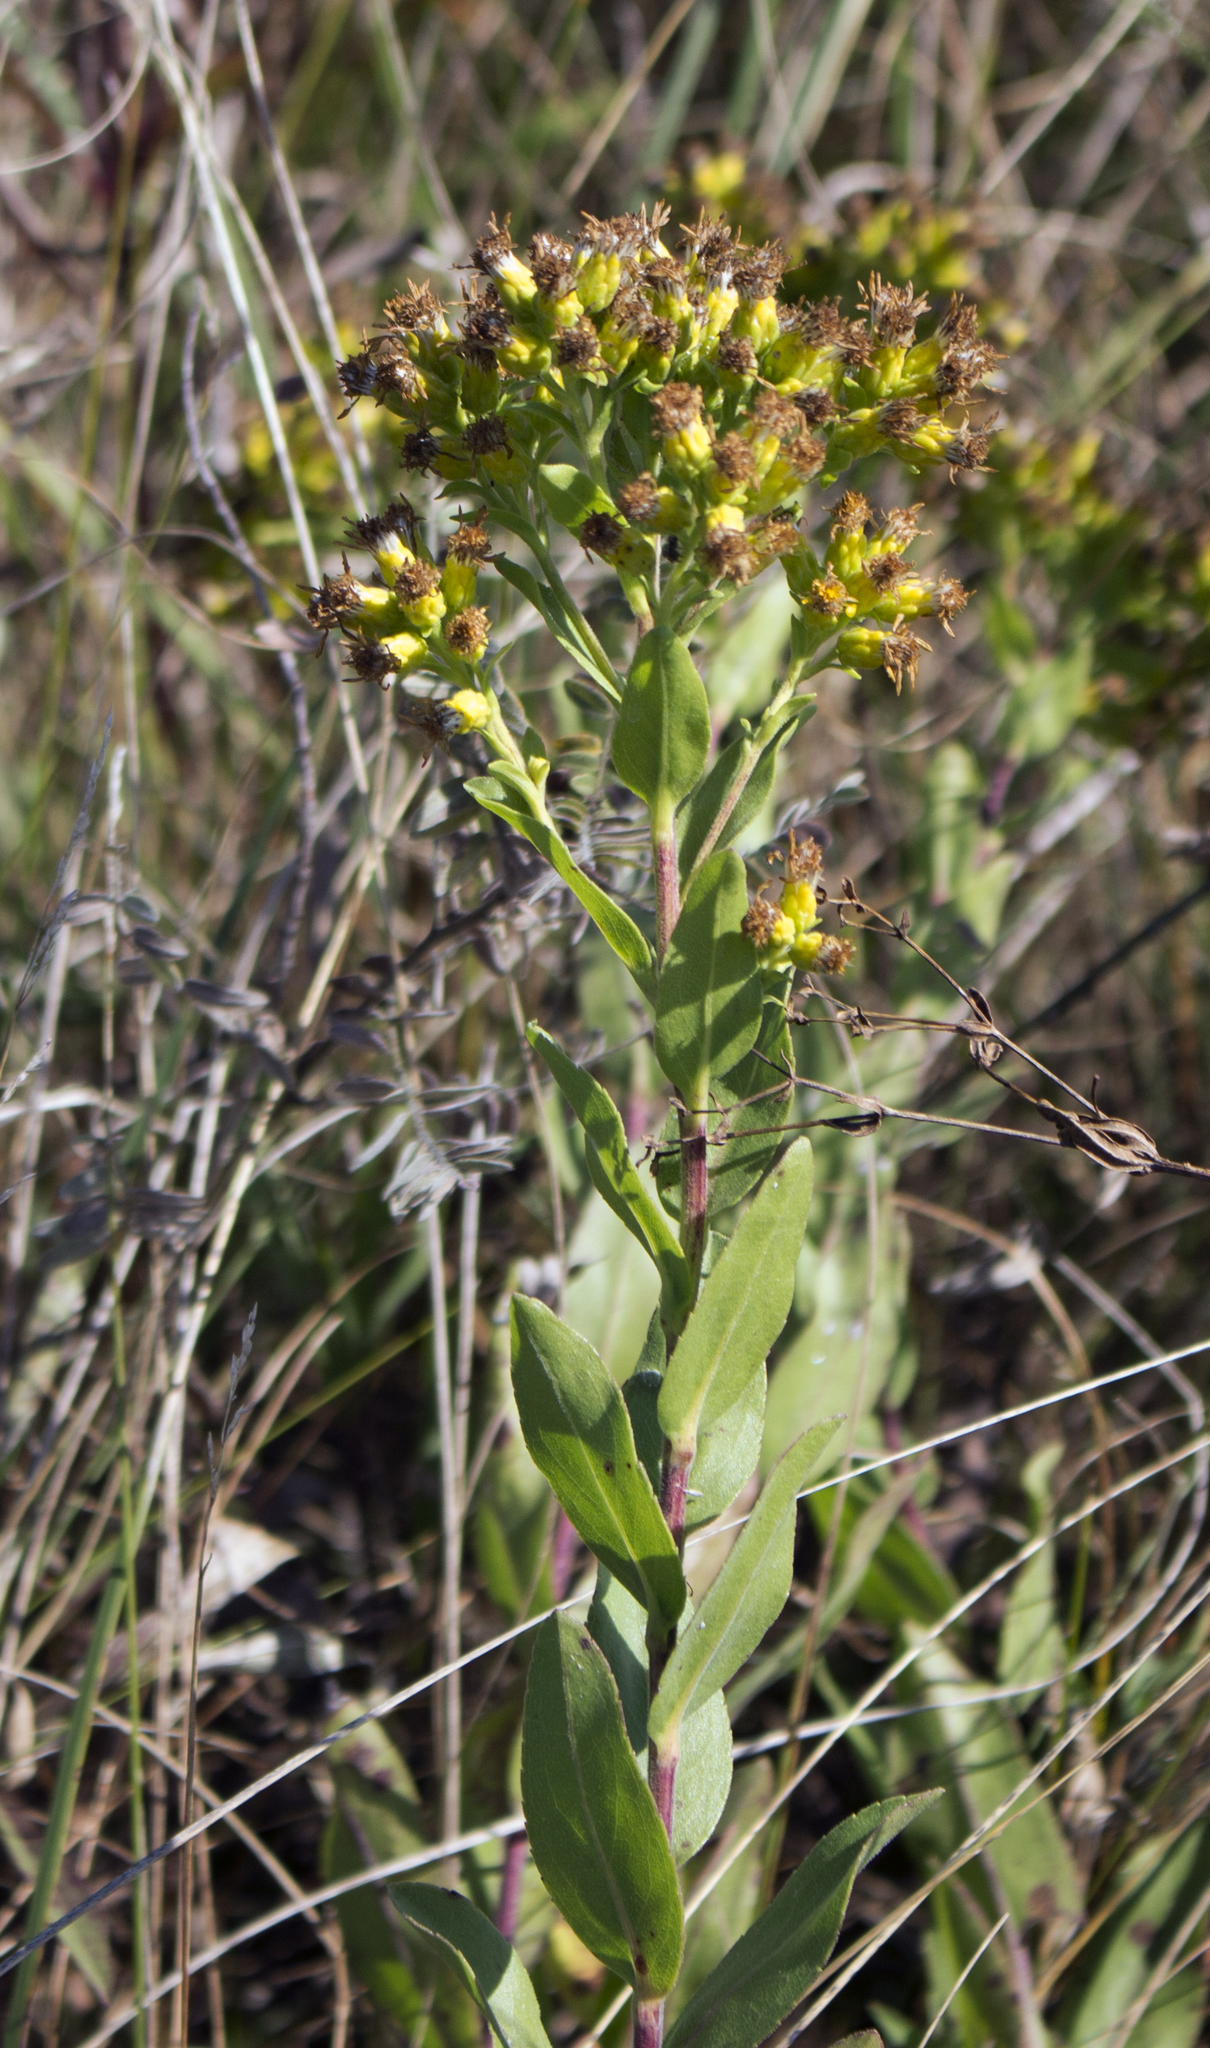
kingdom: Plantae
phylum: Tracheophyta
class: Magnoliopsida
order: Asterales
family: Asteraceae
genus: Solidago
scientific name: Solidago rigida
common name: Rigid goldenrod
